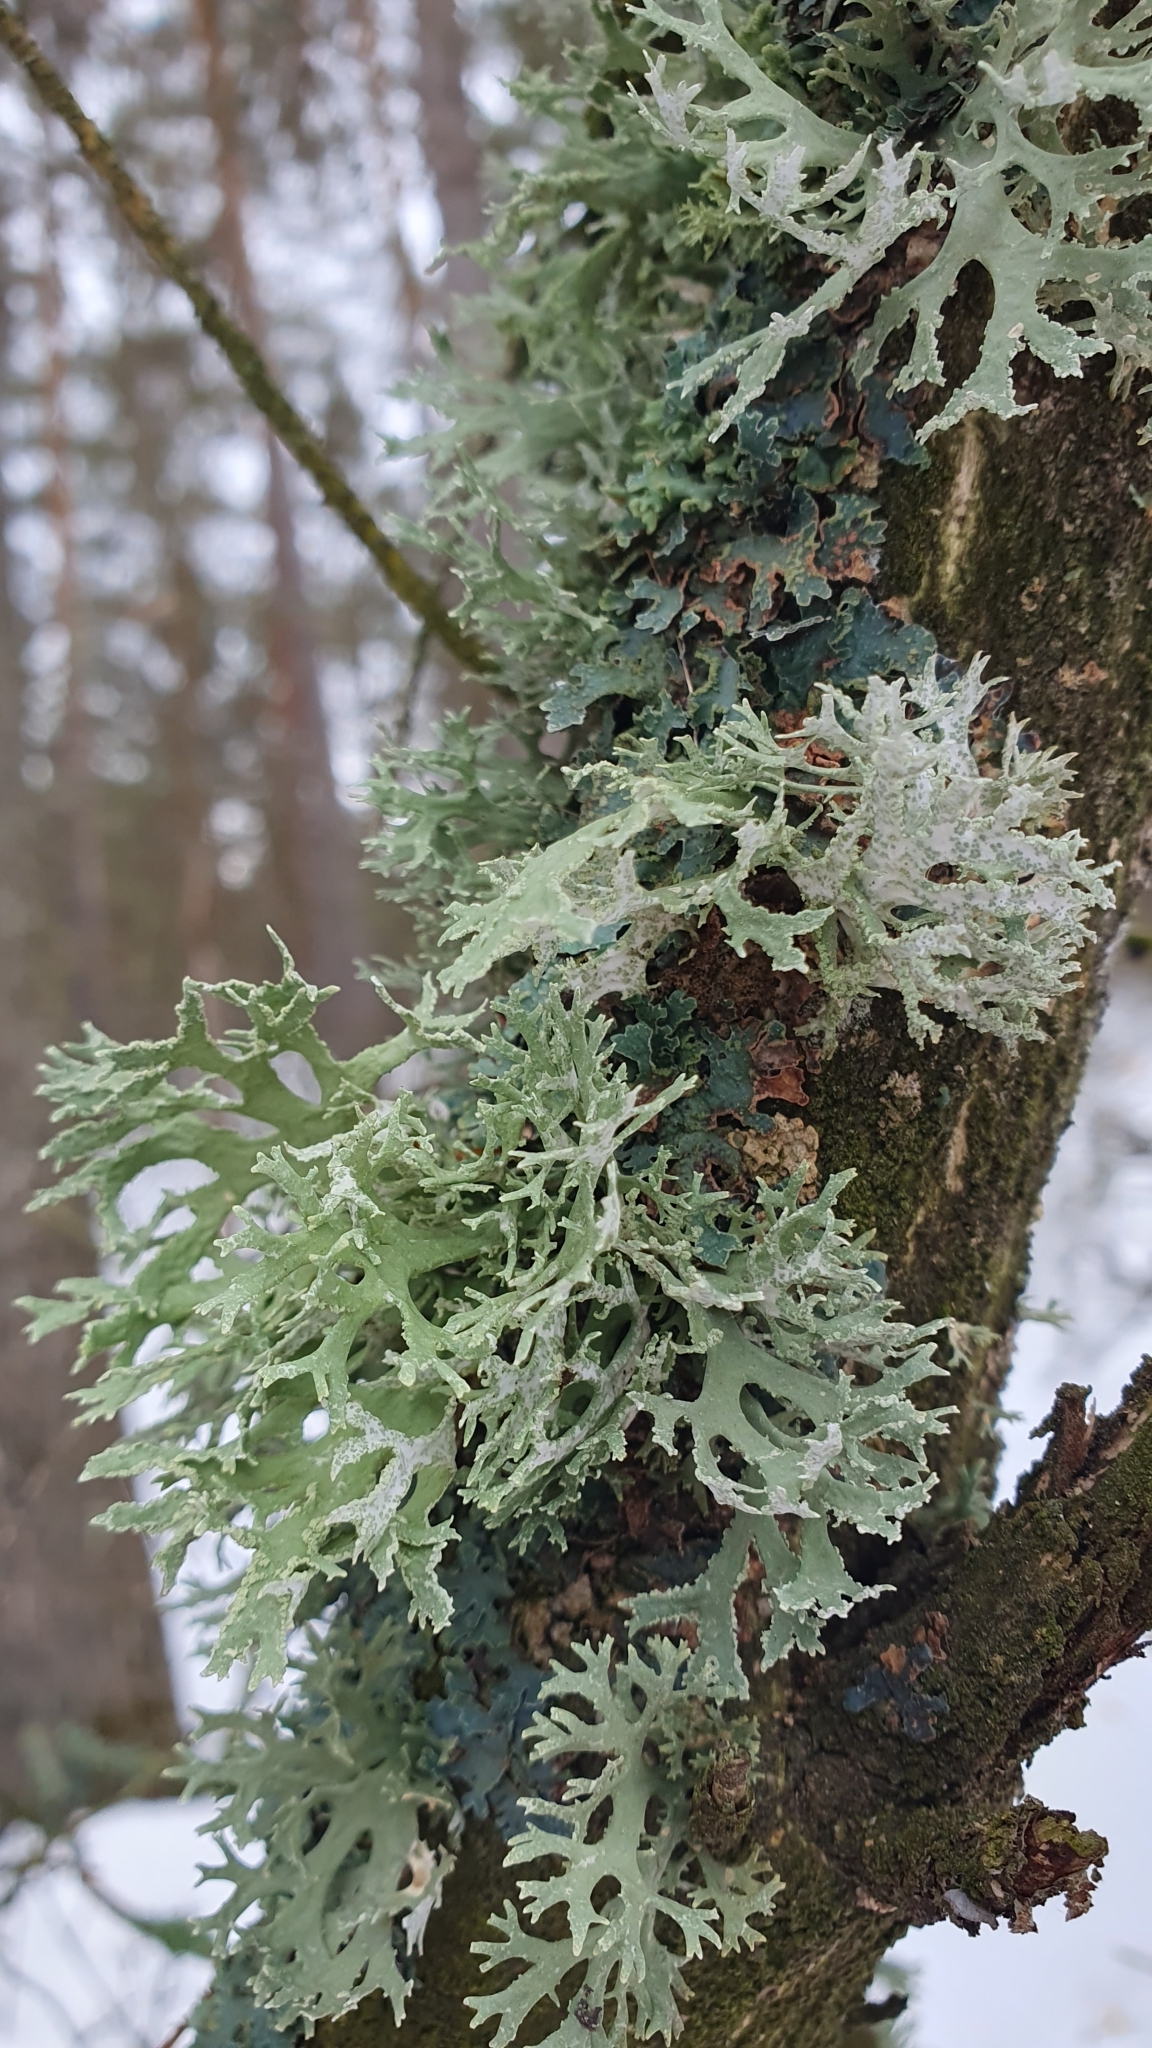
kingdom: Fungi
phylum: Ascomycota
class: Lecanoromycetes
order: Lecanorales
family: Parmeliaceae
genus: Evernia
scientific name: Evernia prunastri
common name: Oak moss
